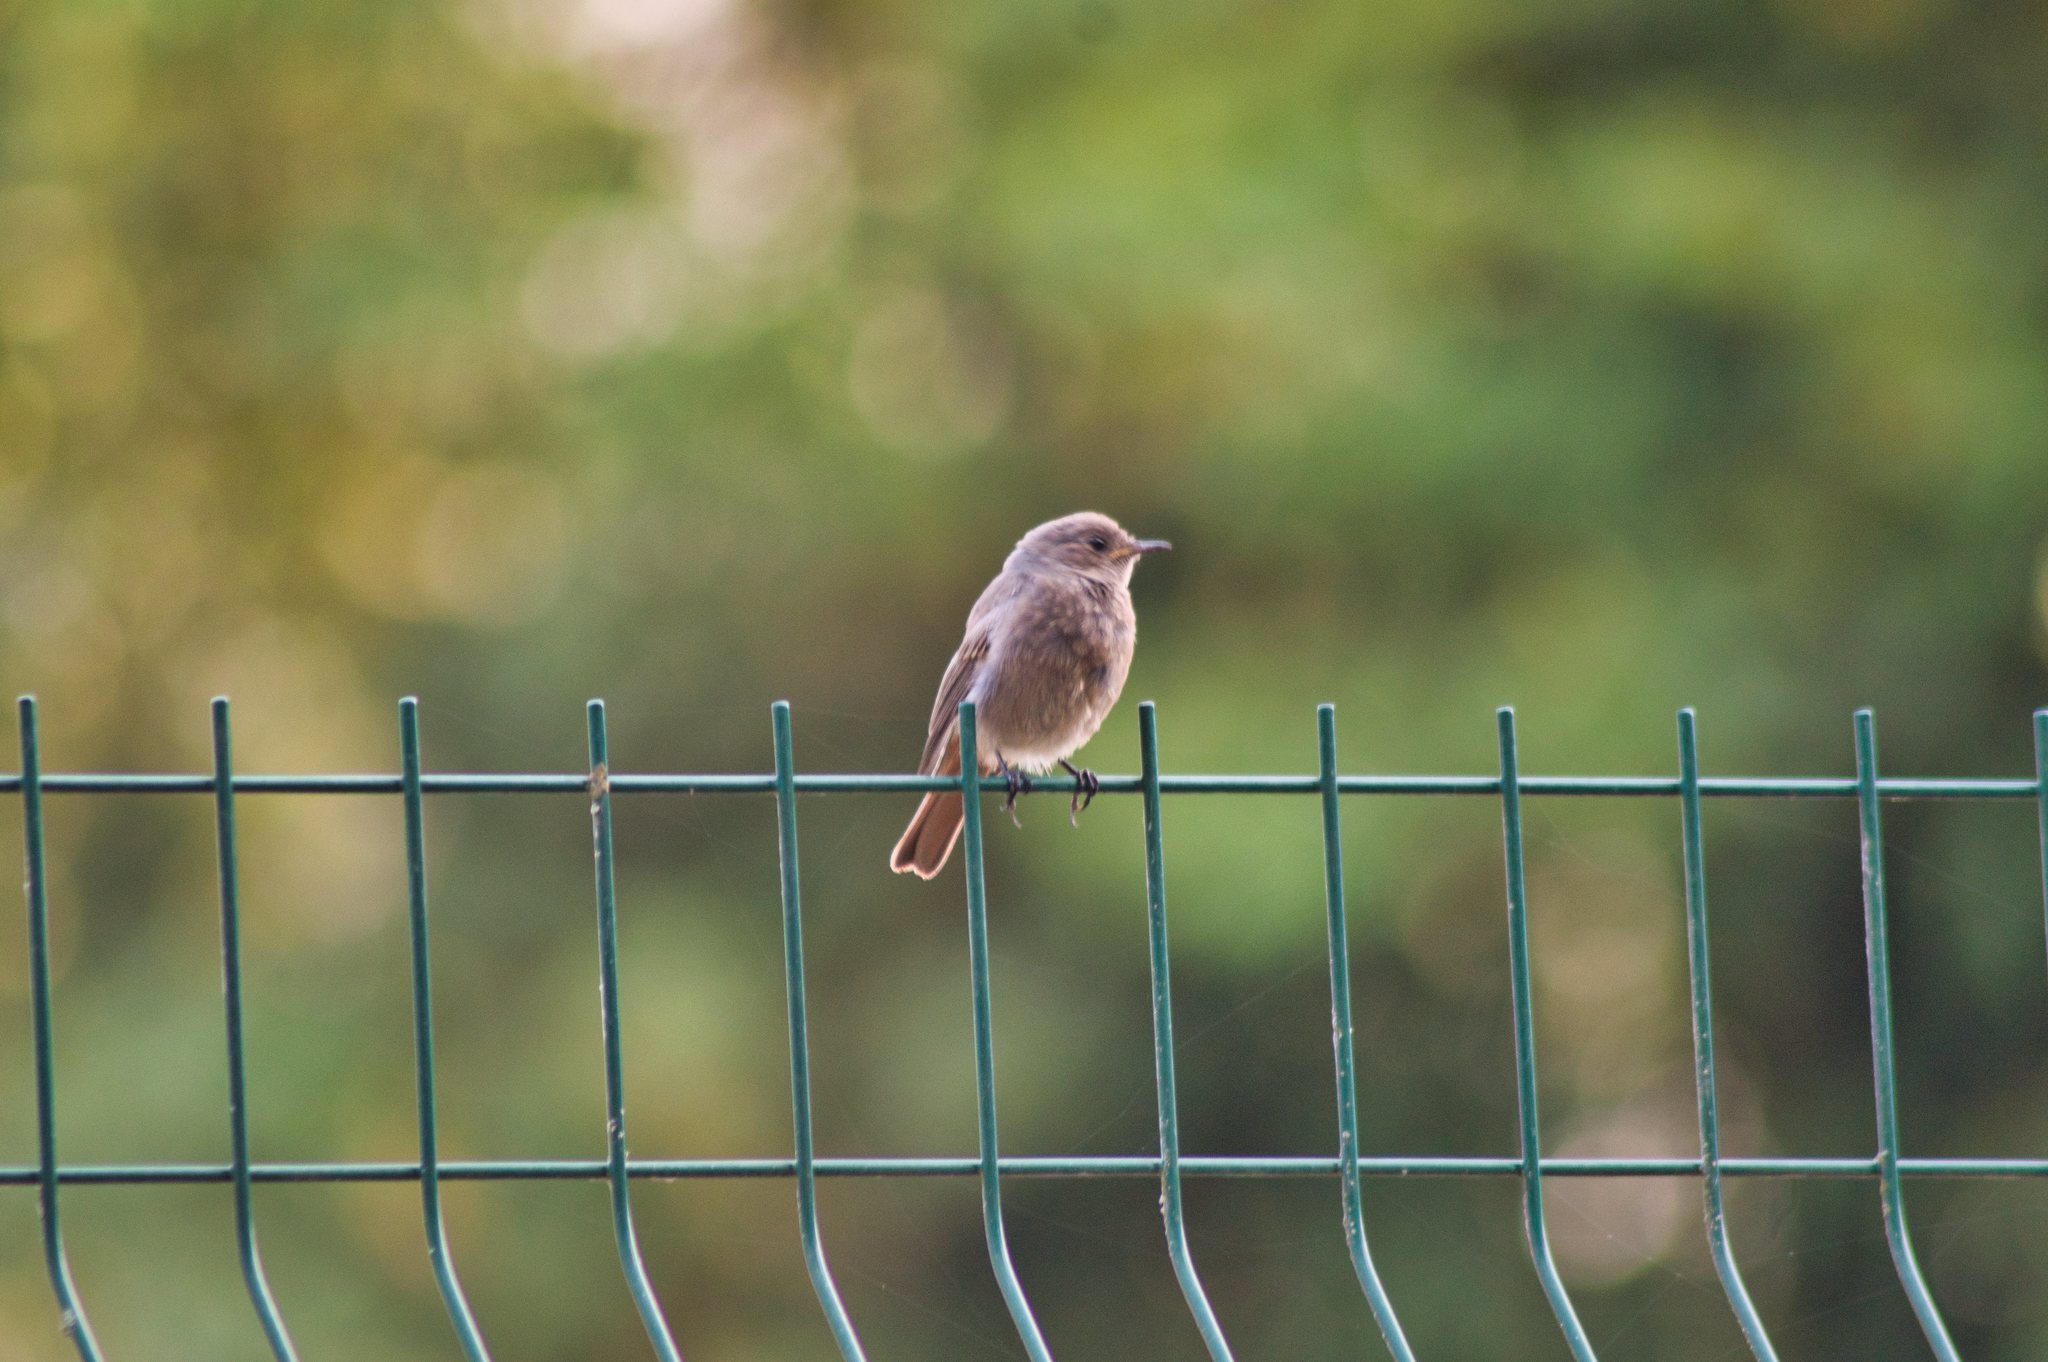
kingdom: Animalia
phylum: Chordata
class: Aves
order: Passeriformes
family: Muscicapidae
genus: Phoenicurus
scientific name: Phoenicurus ochruros
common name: Black redstart
